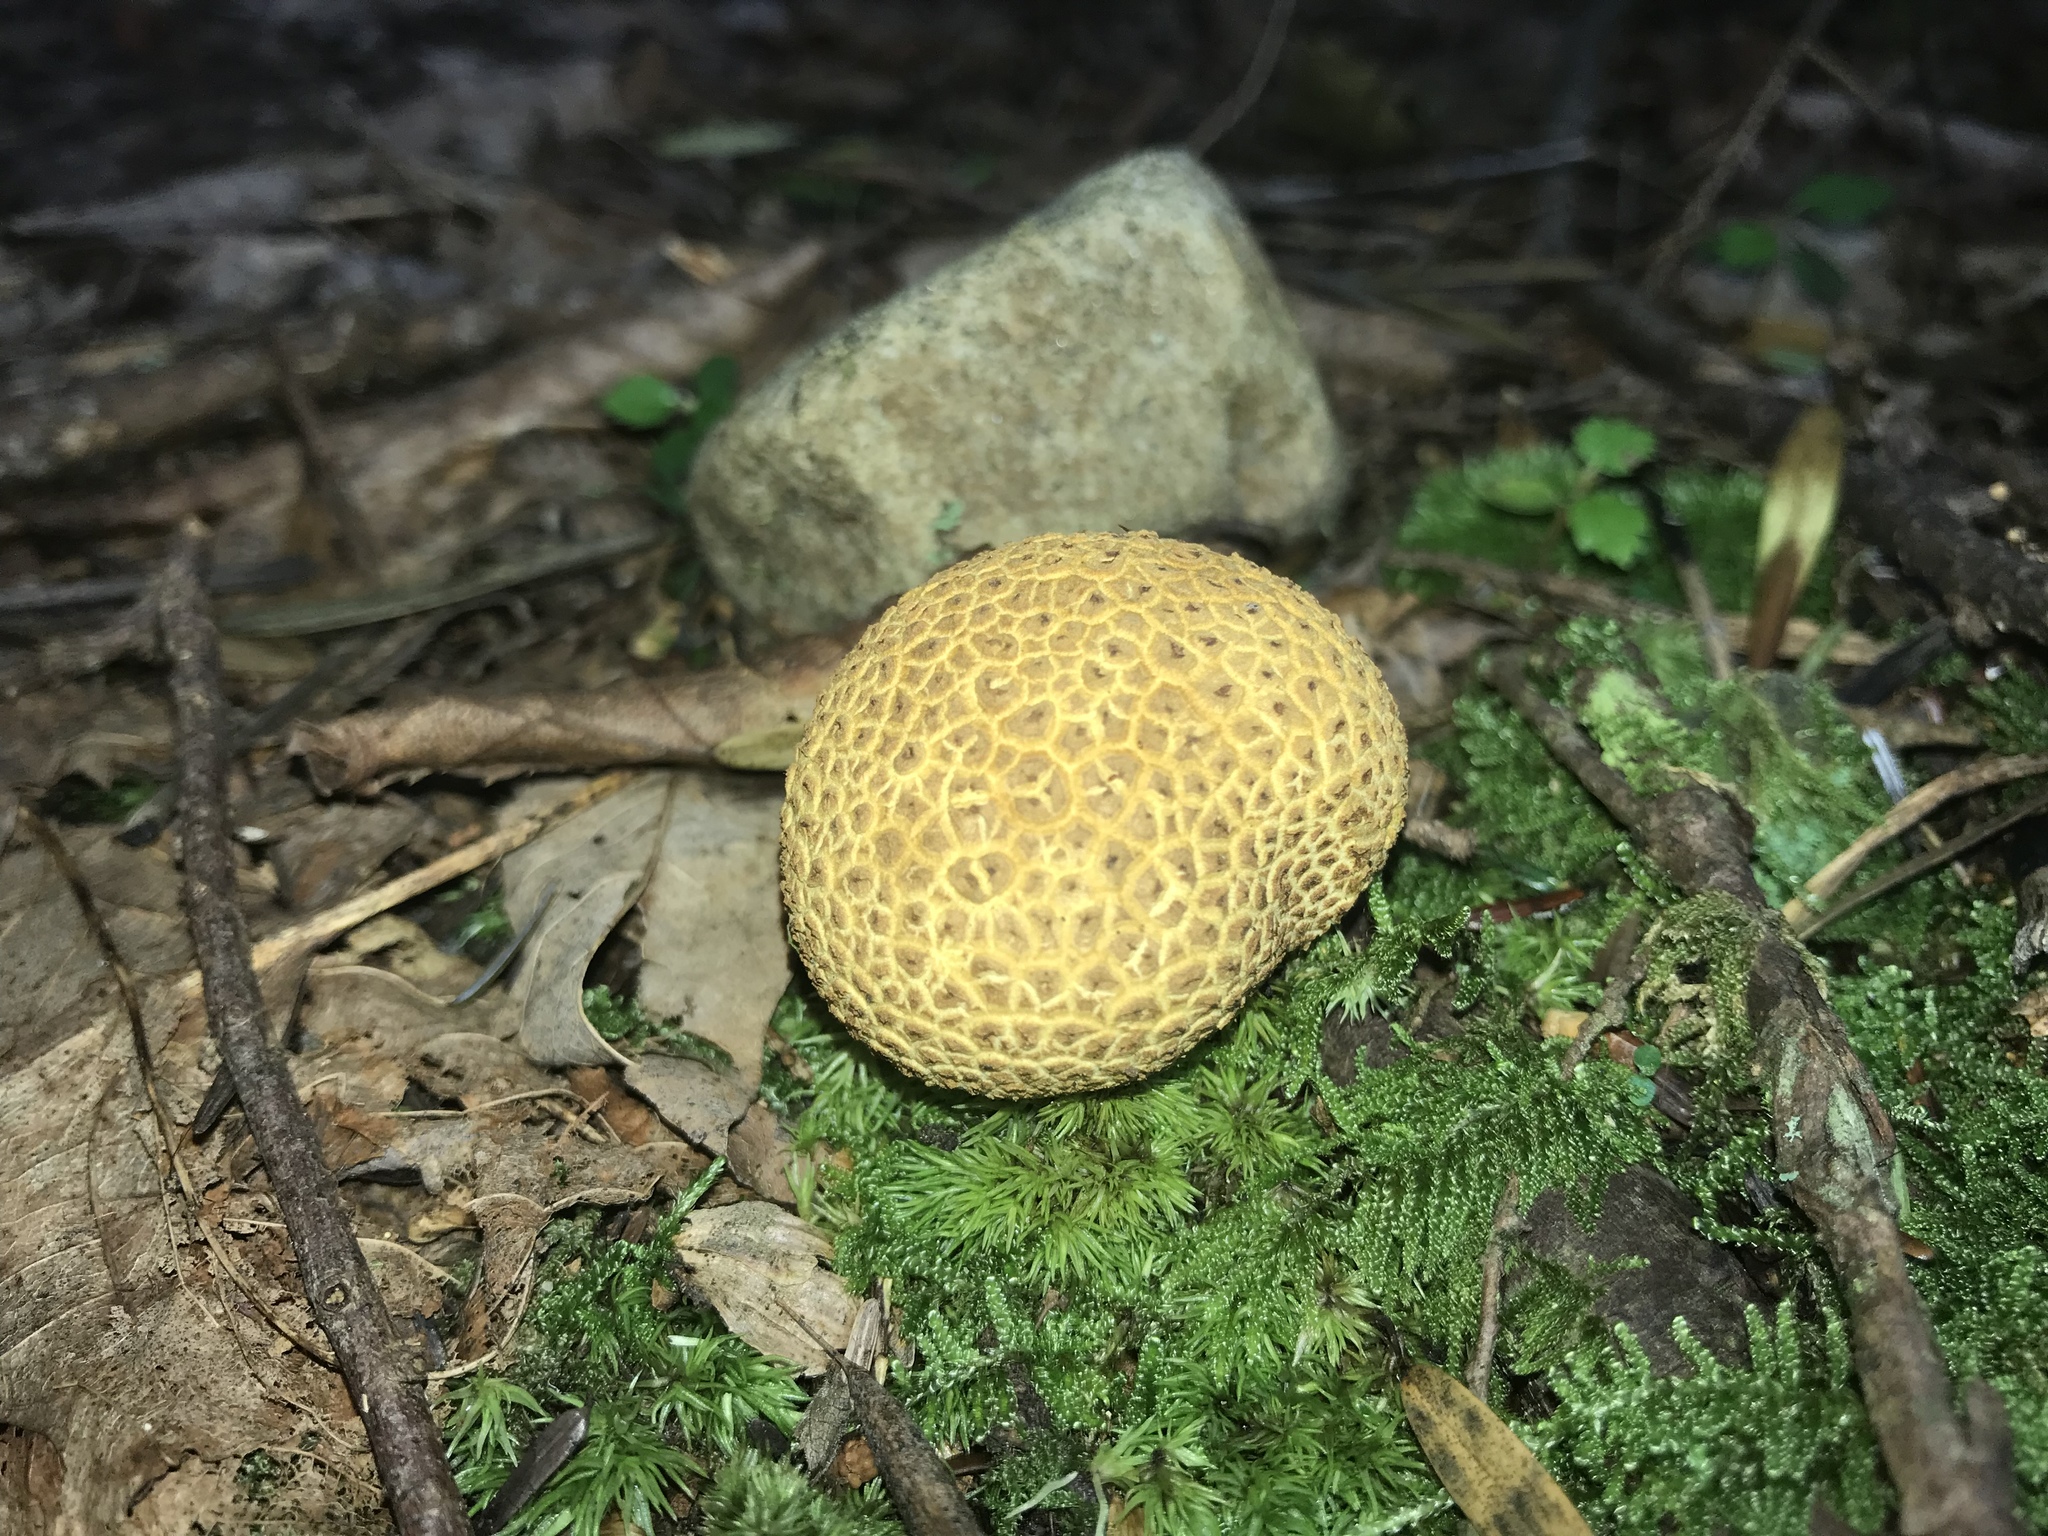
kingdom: Fungi
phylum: Basidiomycota
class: Agaricomycetes
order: Boletales
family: Sclerodermataceae
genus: Scleroderma
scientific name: Scleroderma citrinum
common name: Common earthball
